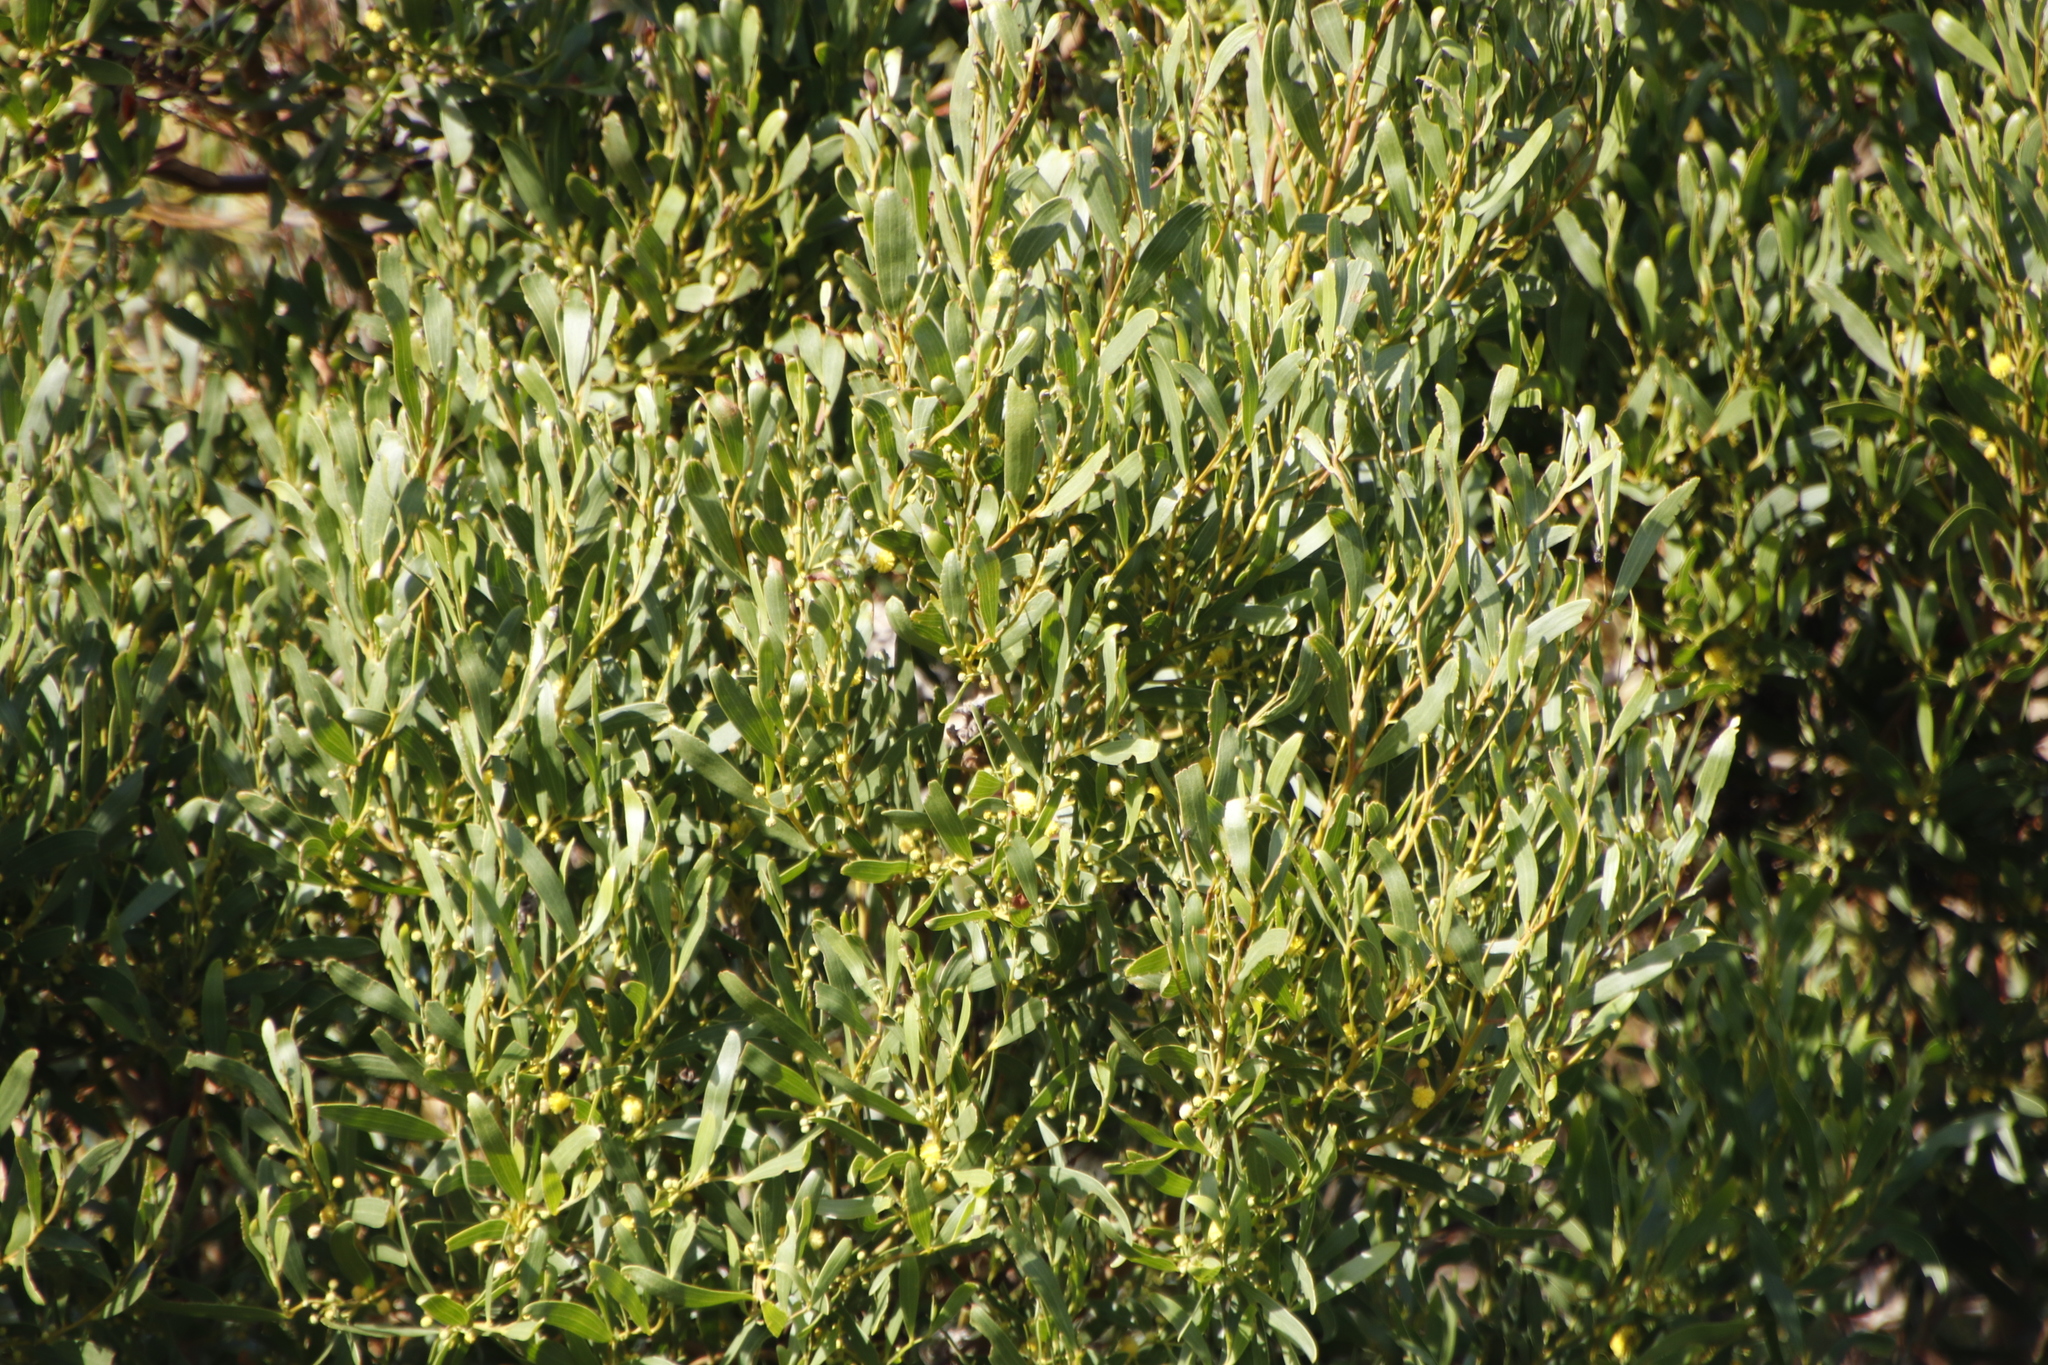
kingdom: Plantae
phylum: Tracheophyta
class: Magnoliopsida
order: Fabales
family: Fabaceae
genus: Acacia
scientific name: Acacia cyclops
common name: Coastal wattle
